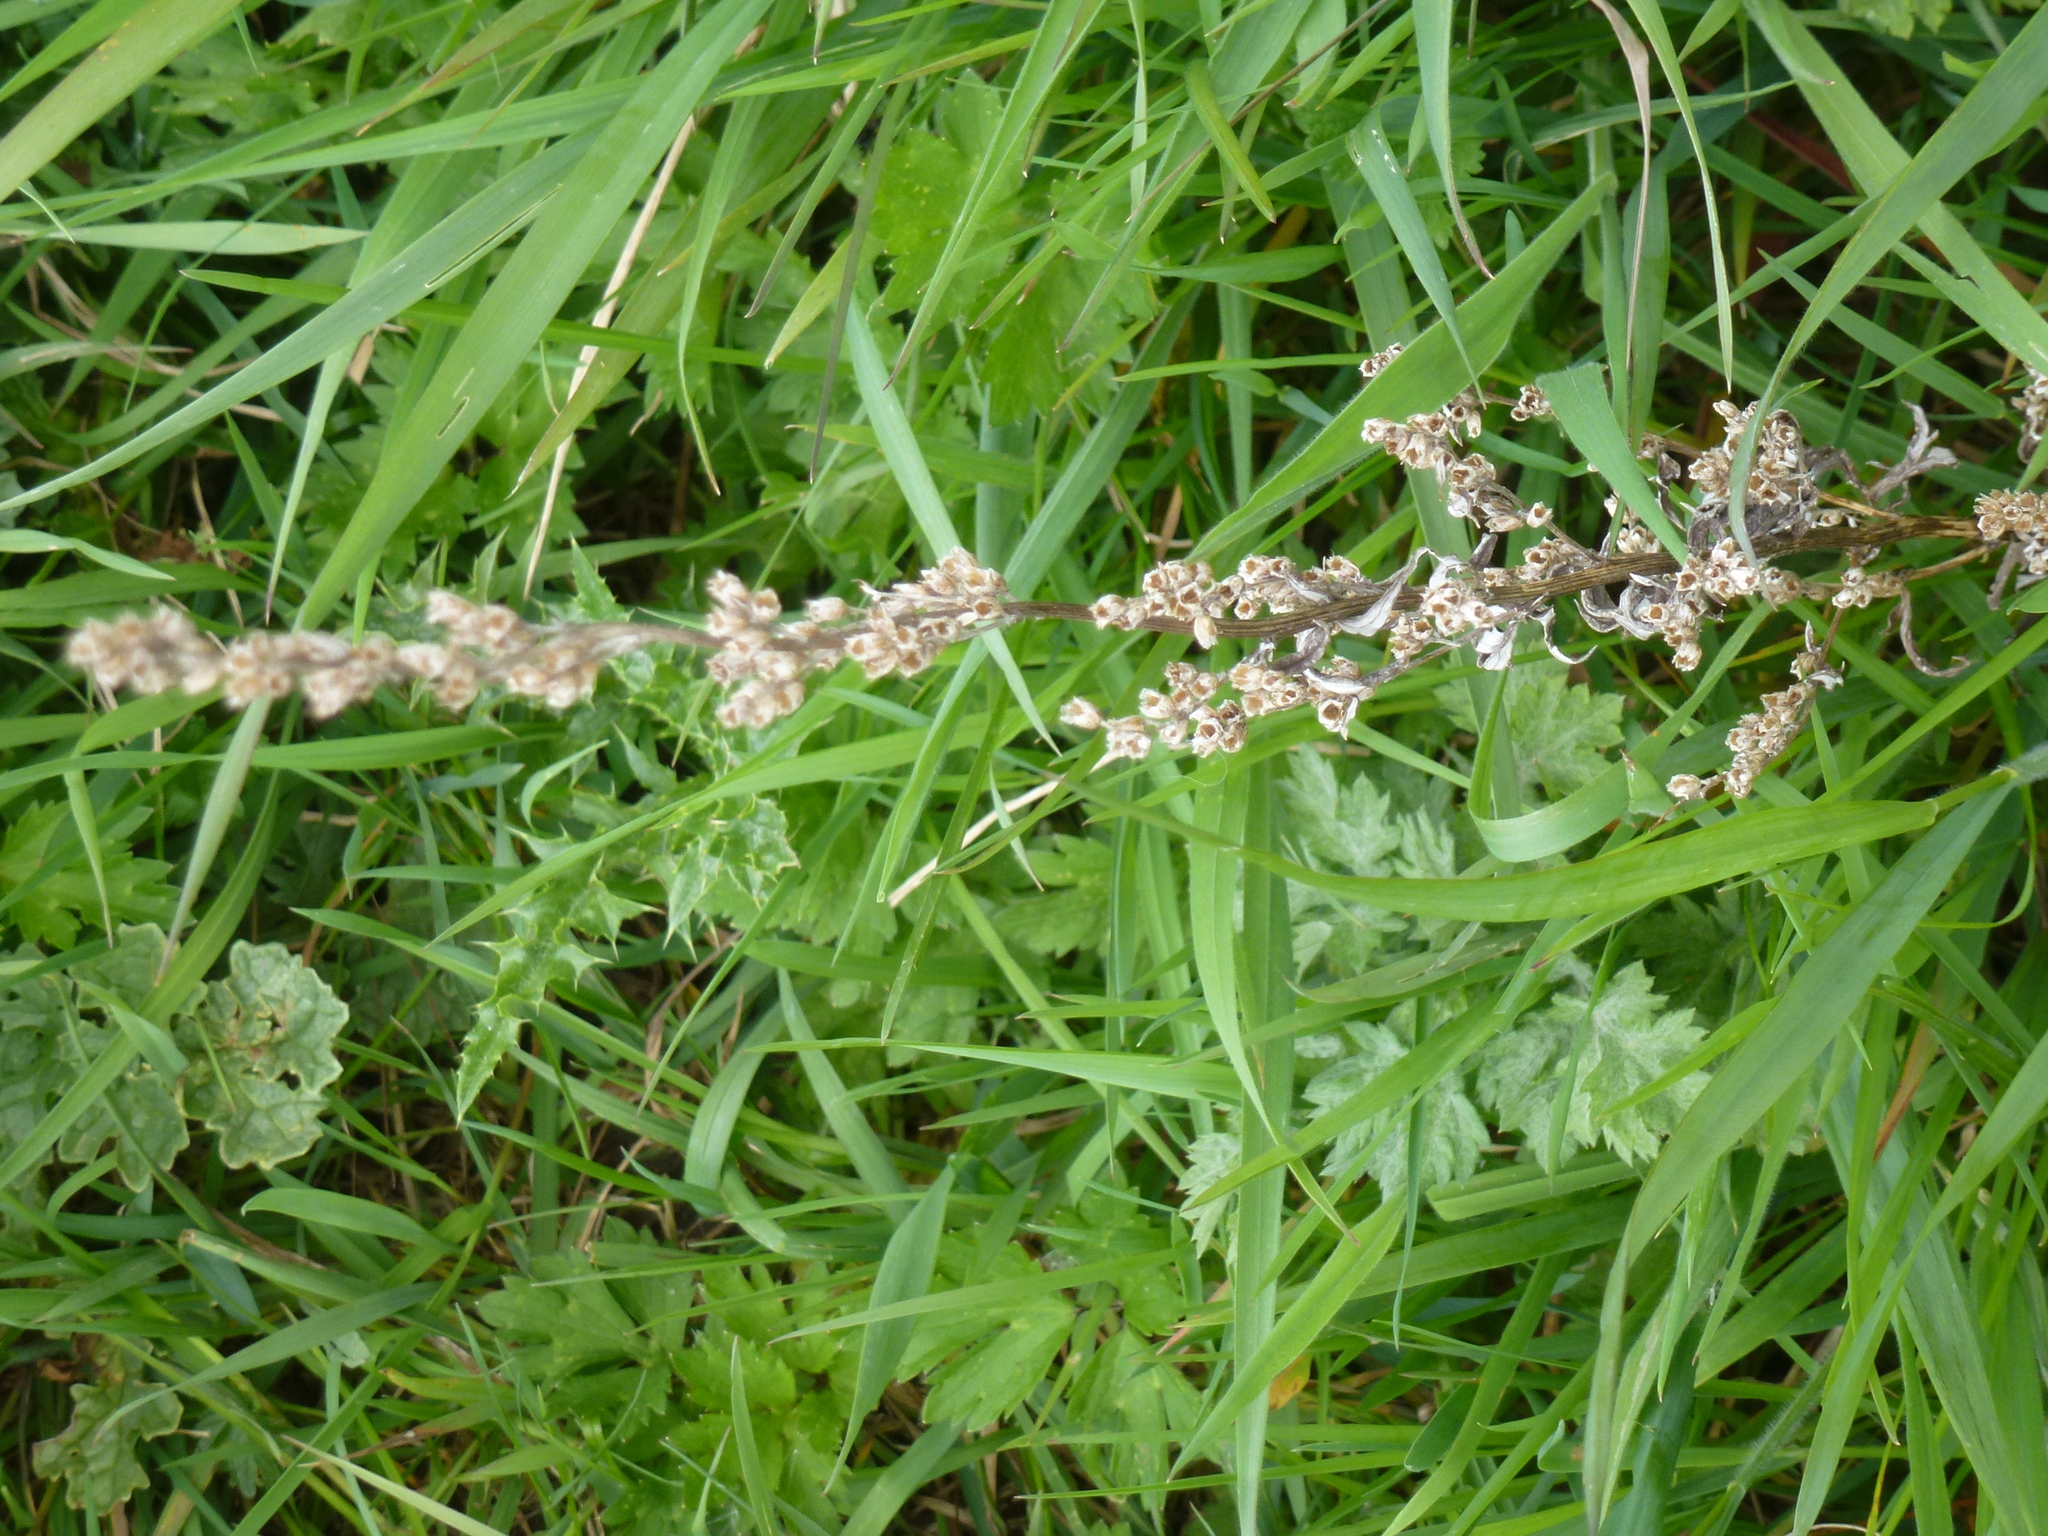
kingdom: Plantae
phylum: Tracheophyta
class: Magnoliopsida
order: Asterales
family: Asteraceae
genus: Artemisia
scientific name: Artemisia vulgaris
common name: Mugwort
